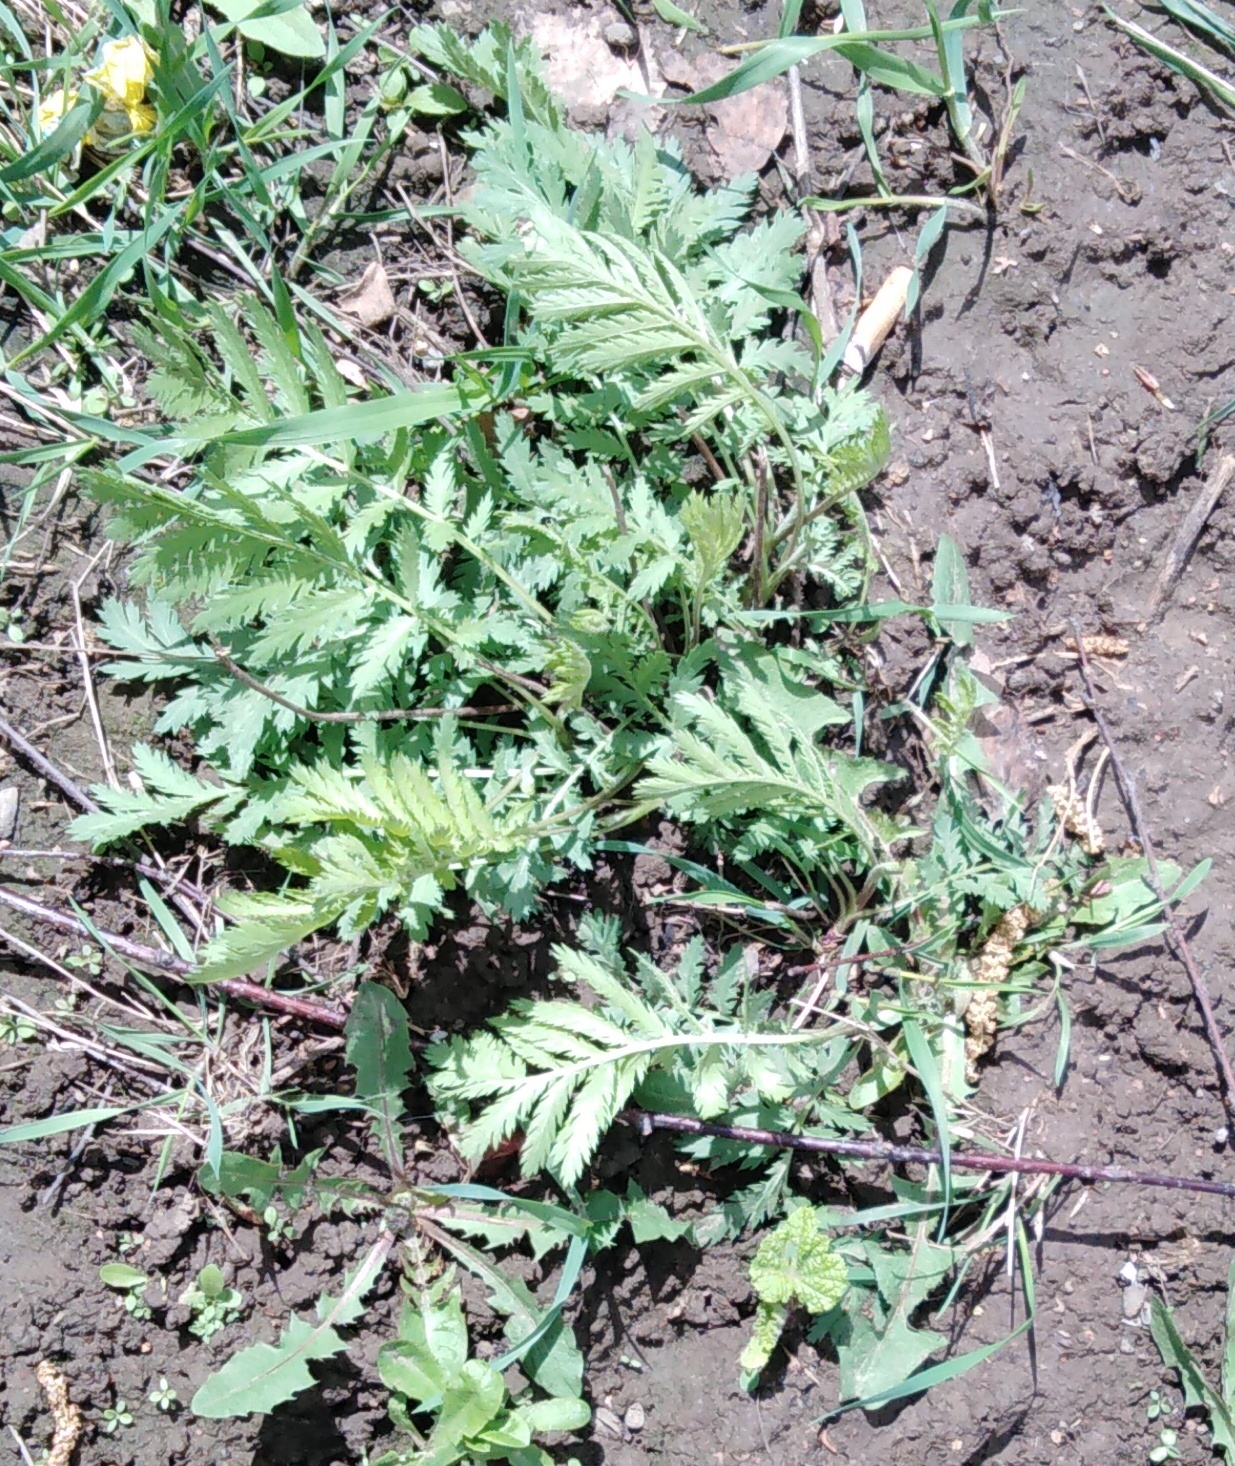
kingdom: Plantae
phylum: Tracheophyta
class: Magnoliopsida
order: Asterales
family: Asteraceae
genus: Tanacetum
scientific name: Tanacetum vulgare
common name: Common tansy
